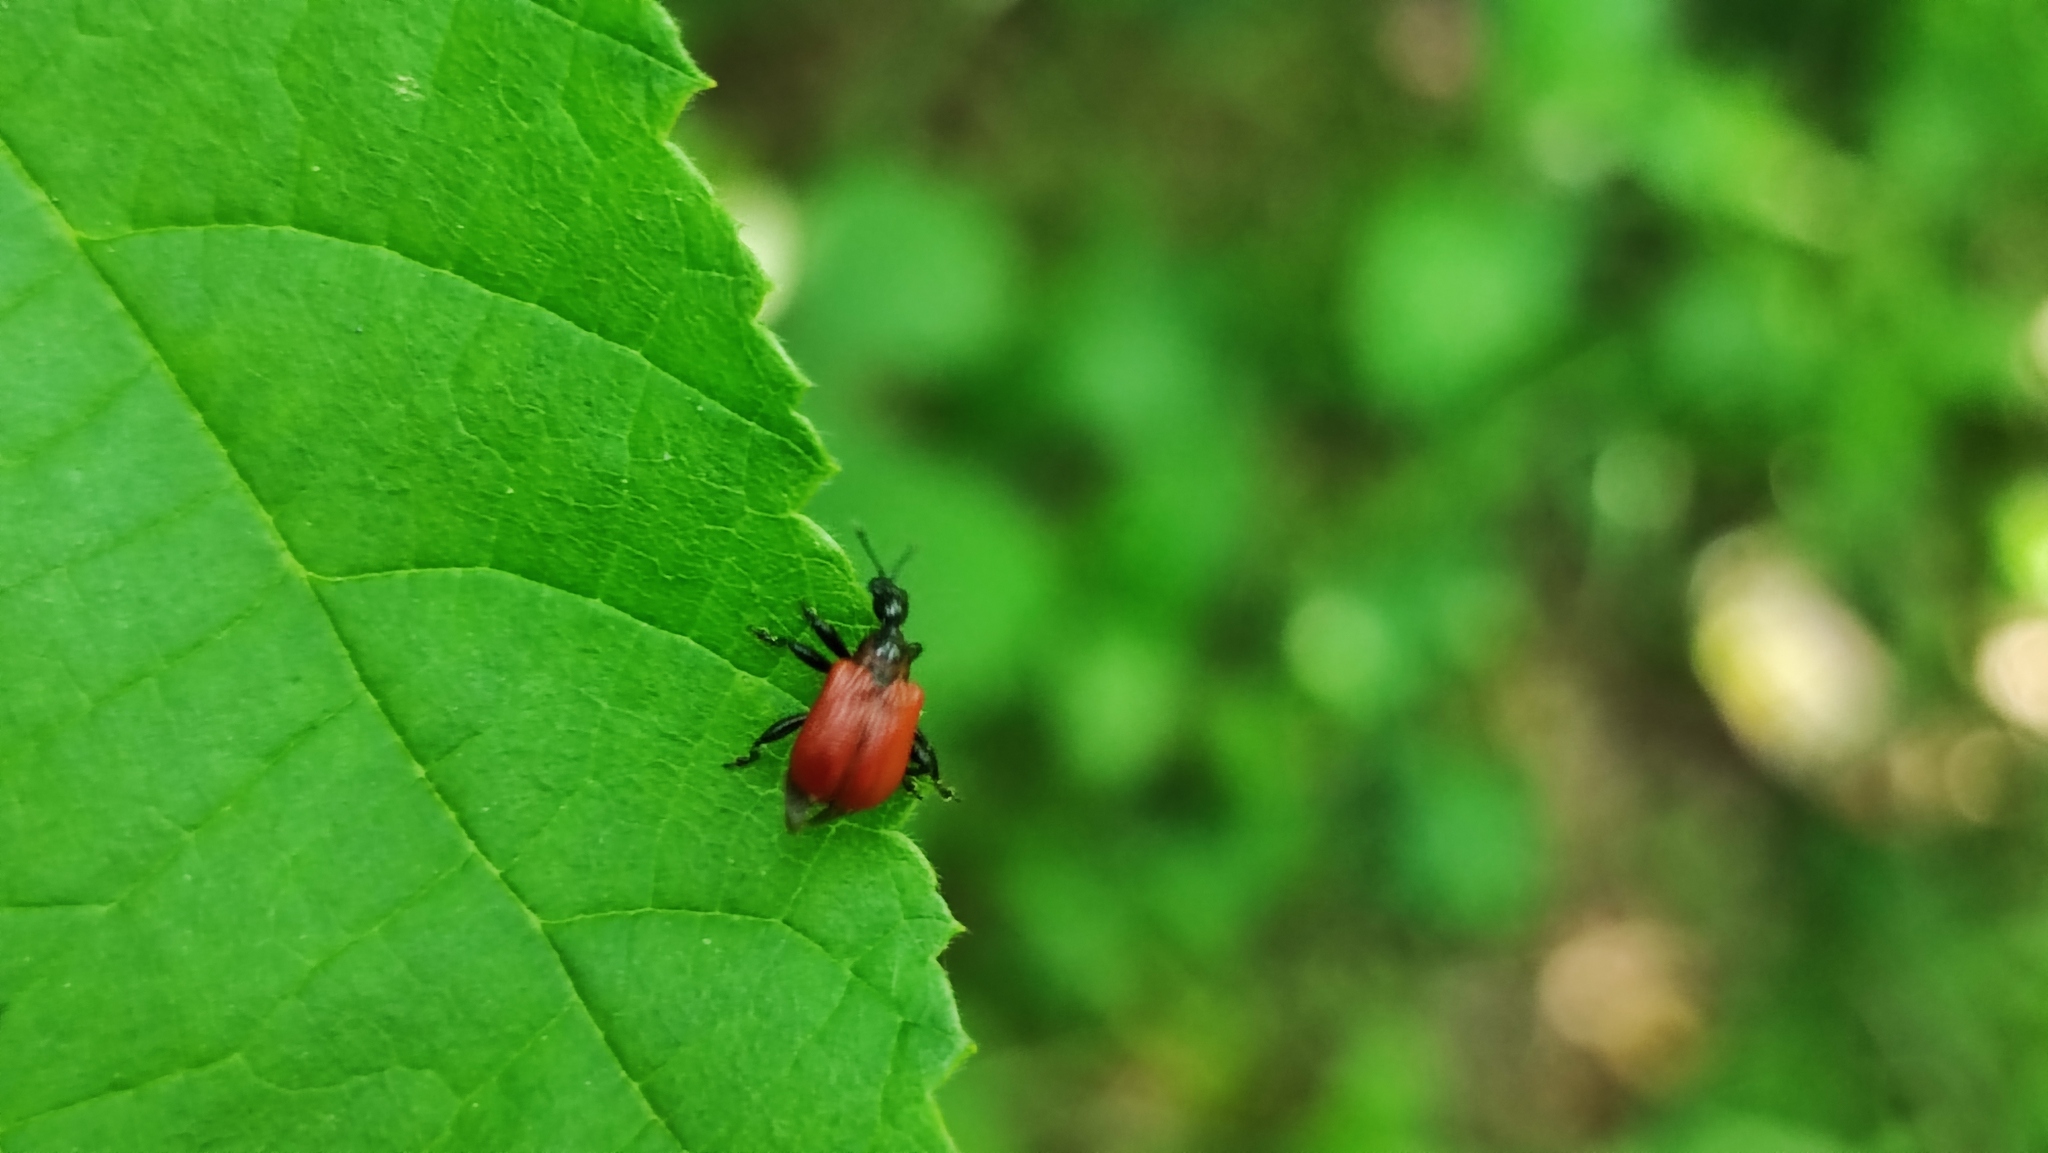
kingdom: Animalia
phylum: Arthropoda
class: Insecta
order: Coleoptera
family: Attelabidae
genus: Apoderus
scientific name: Apoderus coryli
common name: Hazel leaf roller
